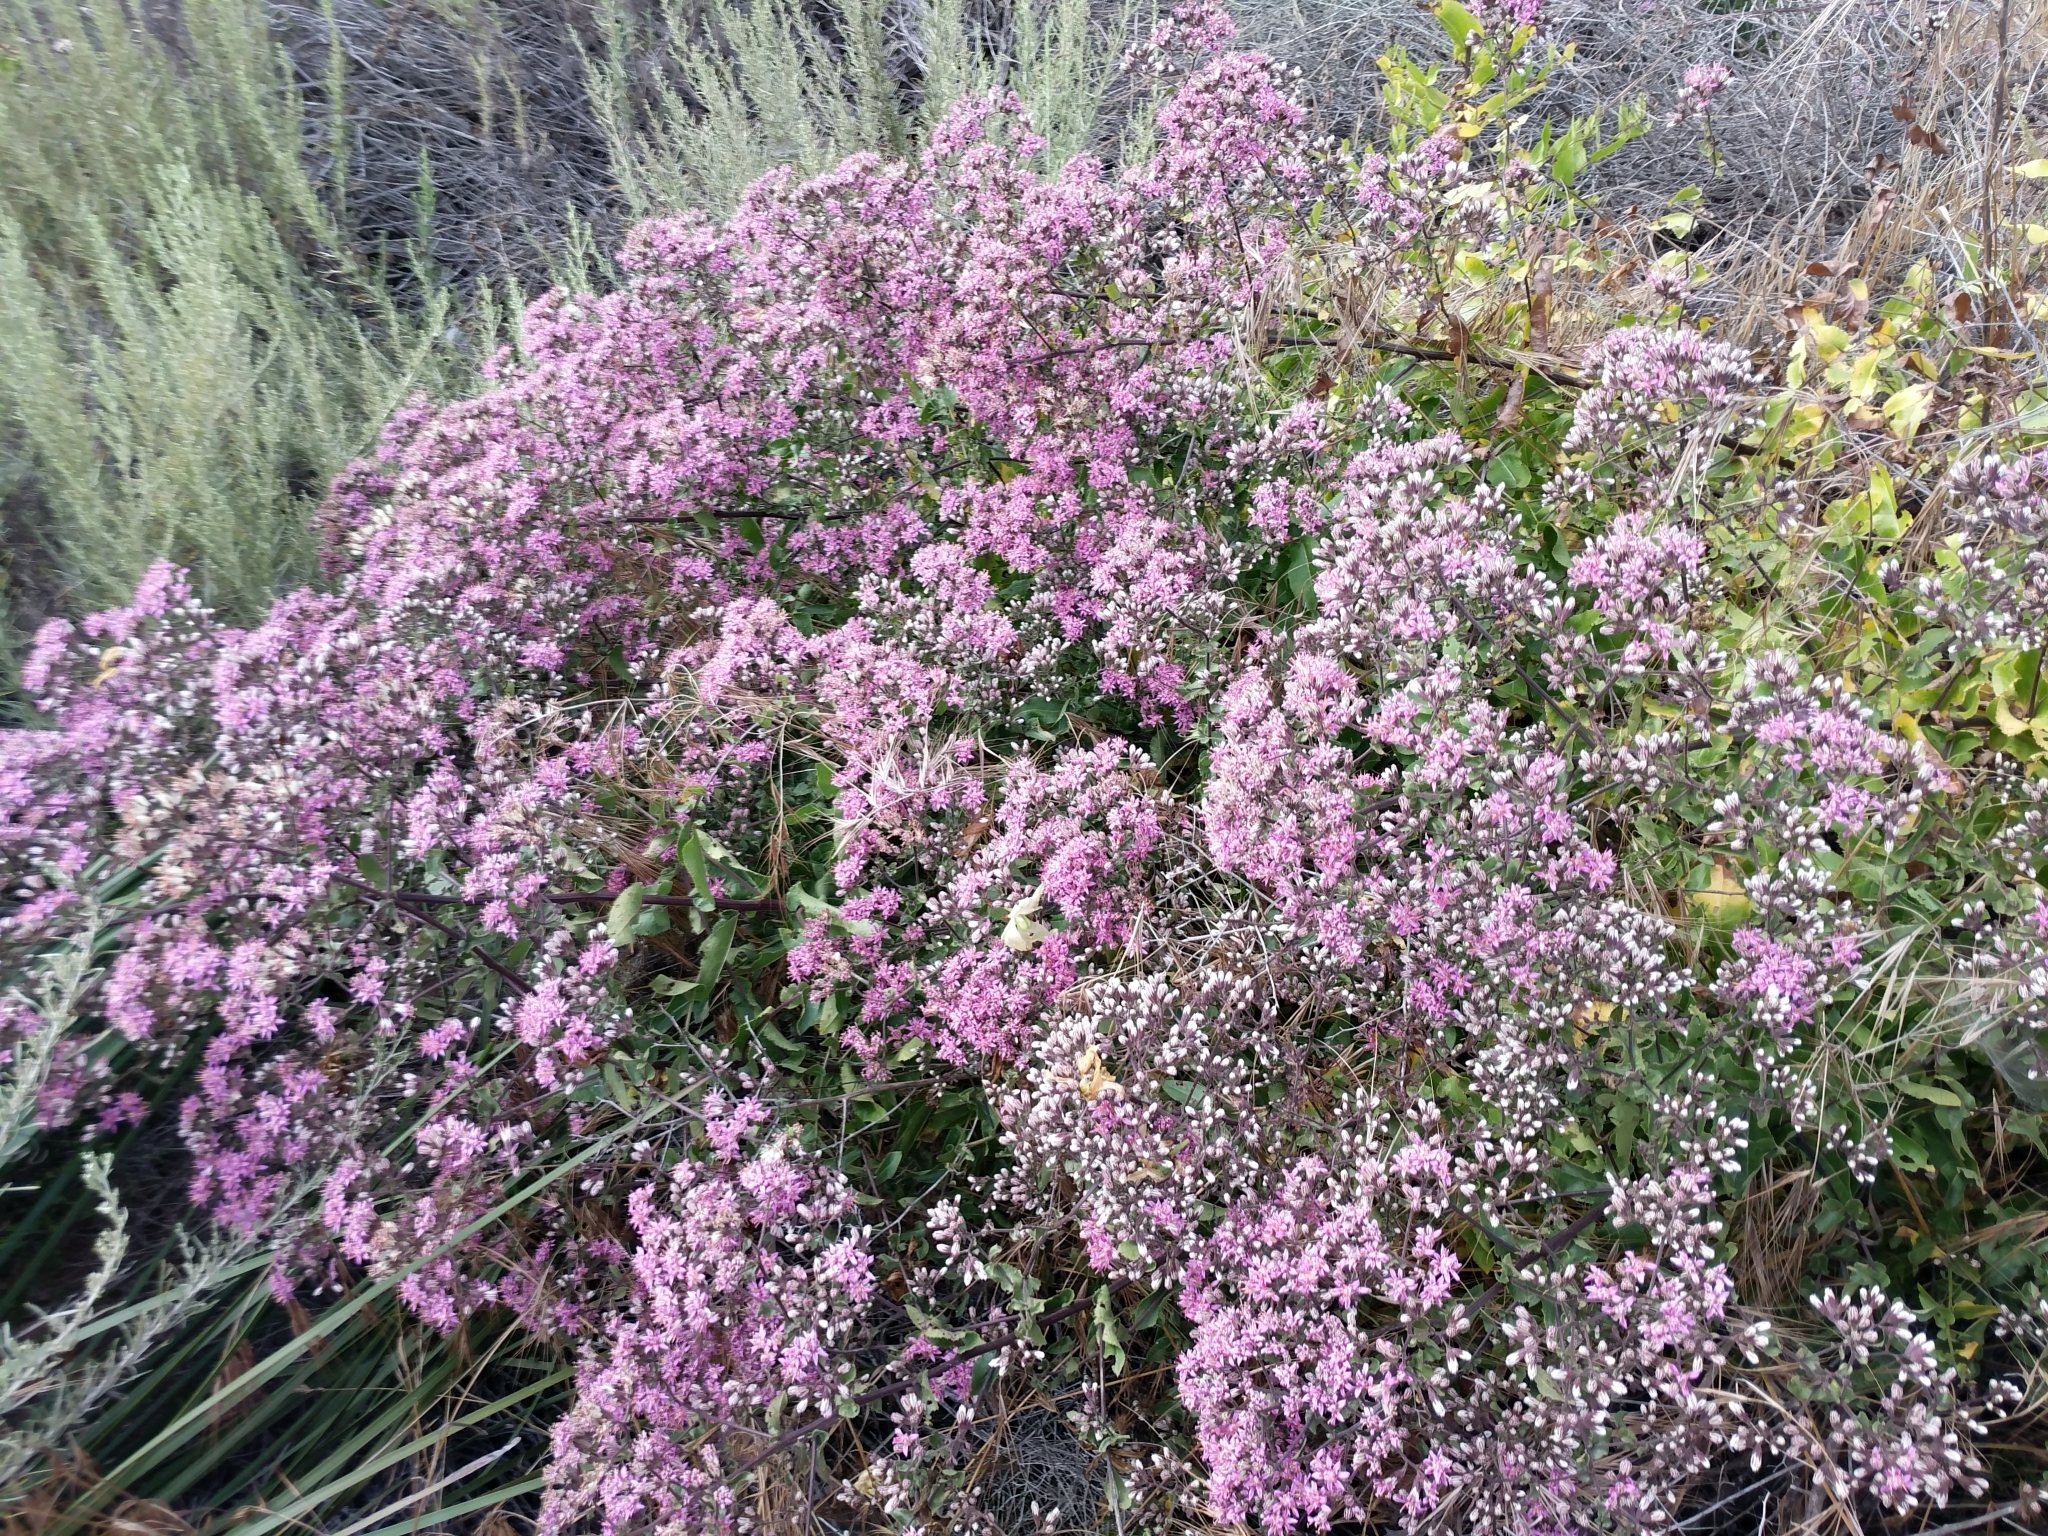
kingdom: Plantae
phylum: Tracheophyta
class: Magnoliopsida
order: Asterales
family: Asteraceae
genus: Acourtia
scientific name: Acourtia microcephala
